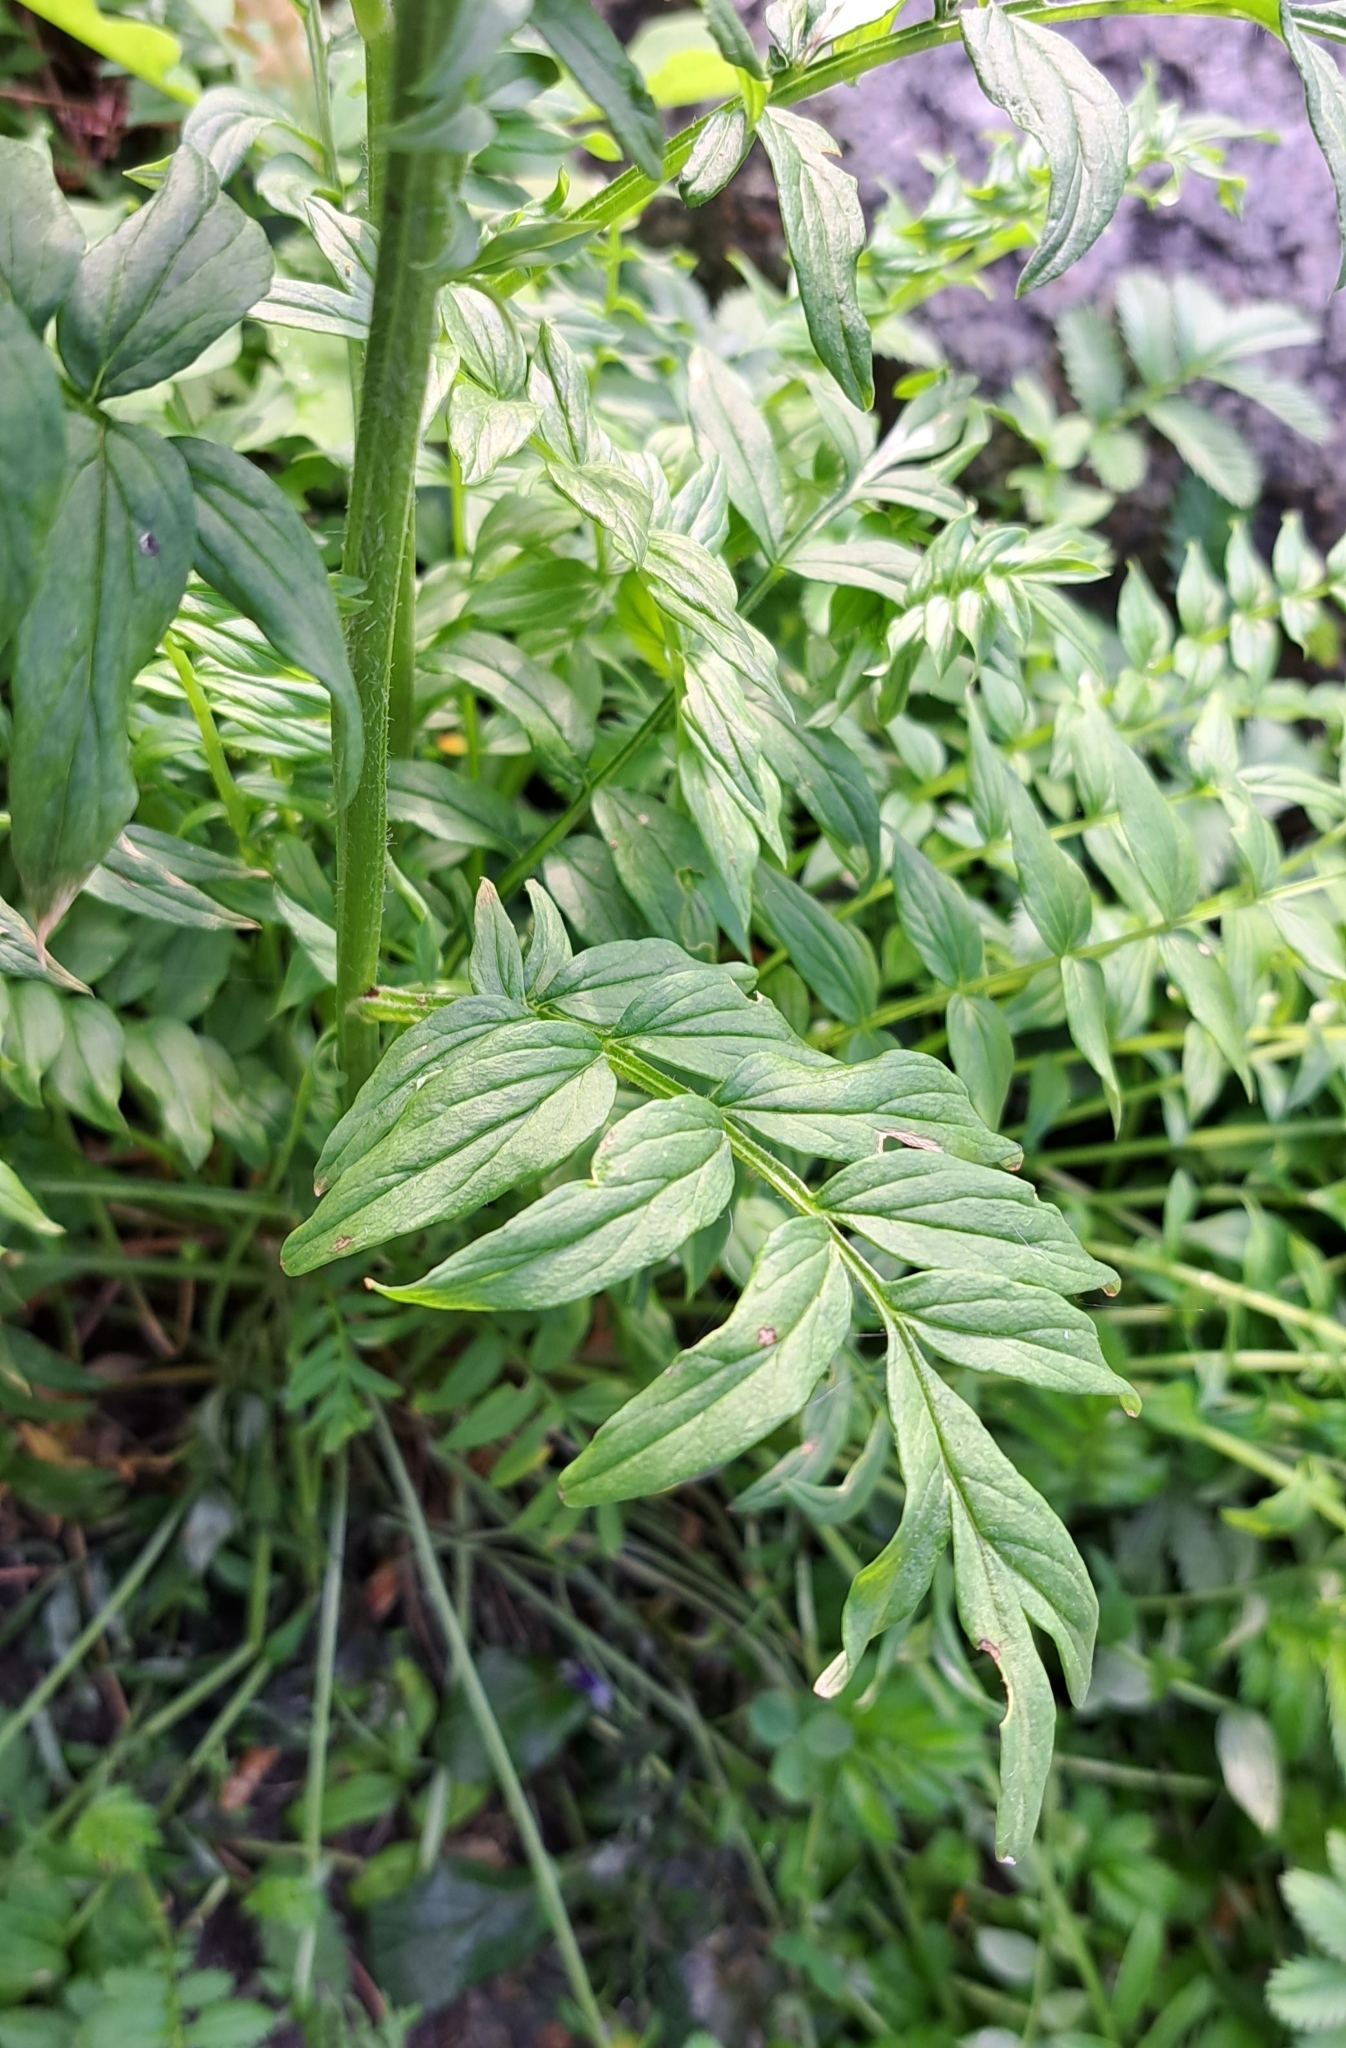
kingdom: Plantae
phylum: Tracheophyta
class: Magnoliopsida
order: Ericales
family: Polemoniaceae
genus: Polemonium
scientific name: Polemonium caeruleum
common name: Jacob's-ladder
